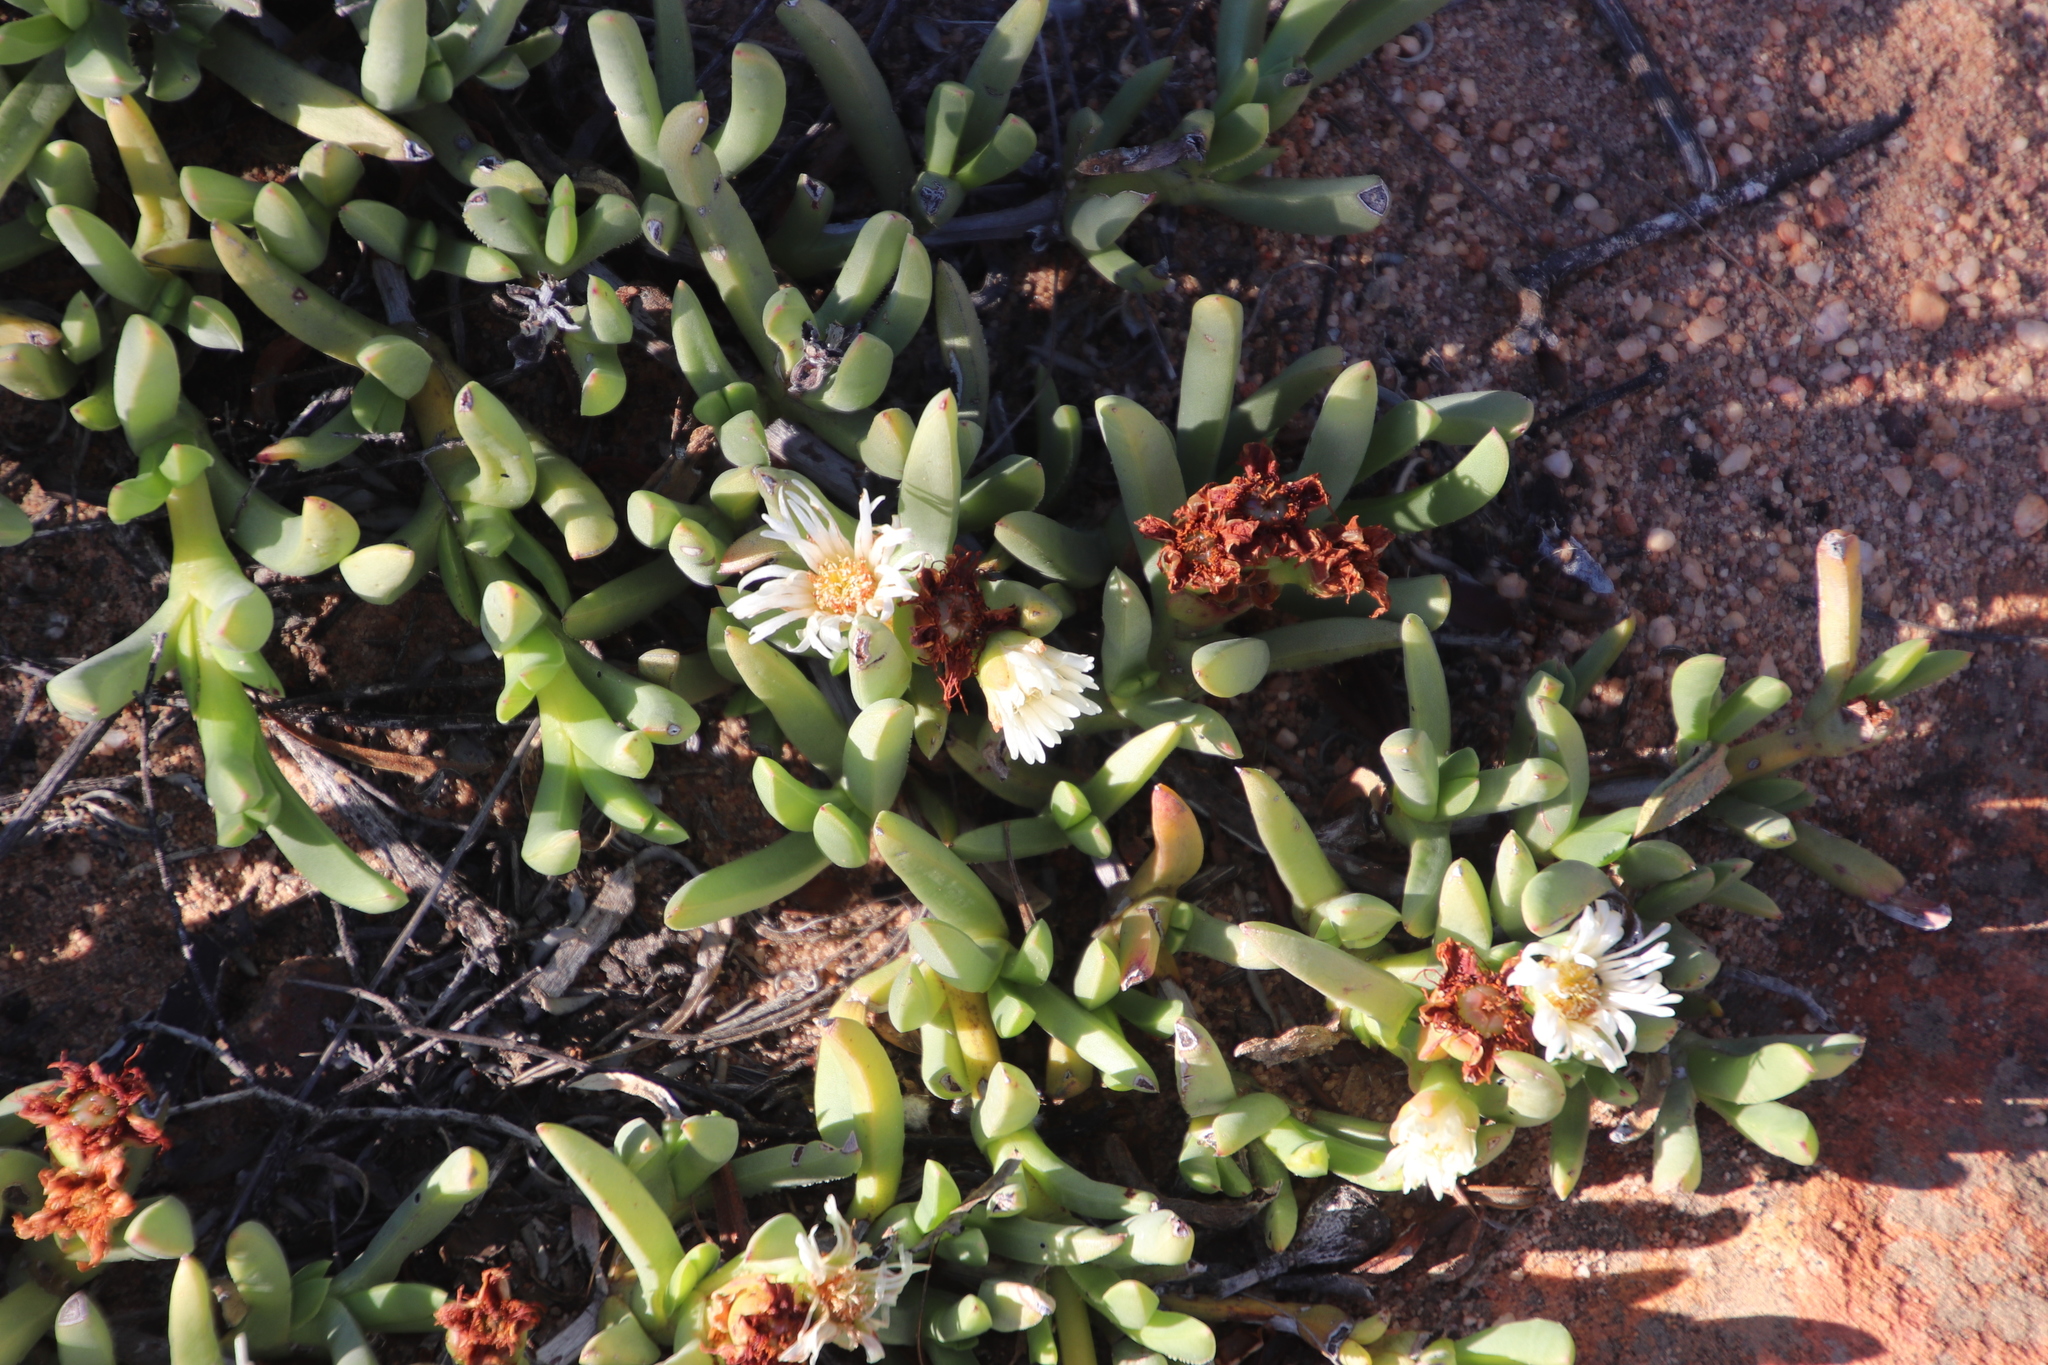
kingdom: Plantae
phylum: Tracheophyta
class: Magnoliopsida
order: Caryophyllales
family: Aizoaceae
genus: Ruschia
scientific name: Ruschia albida
